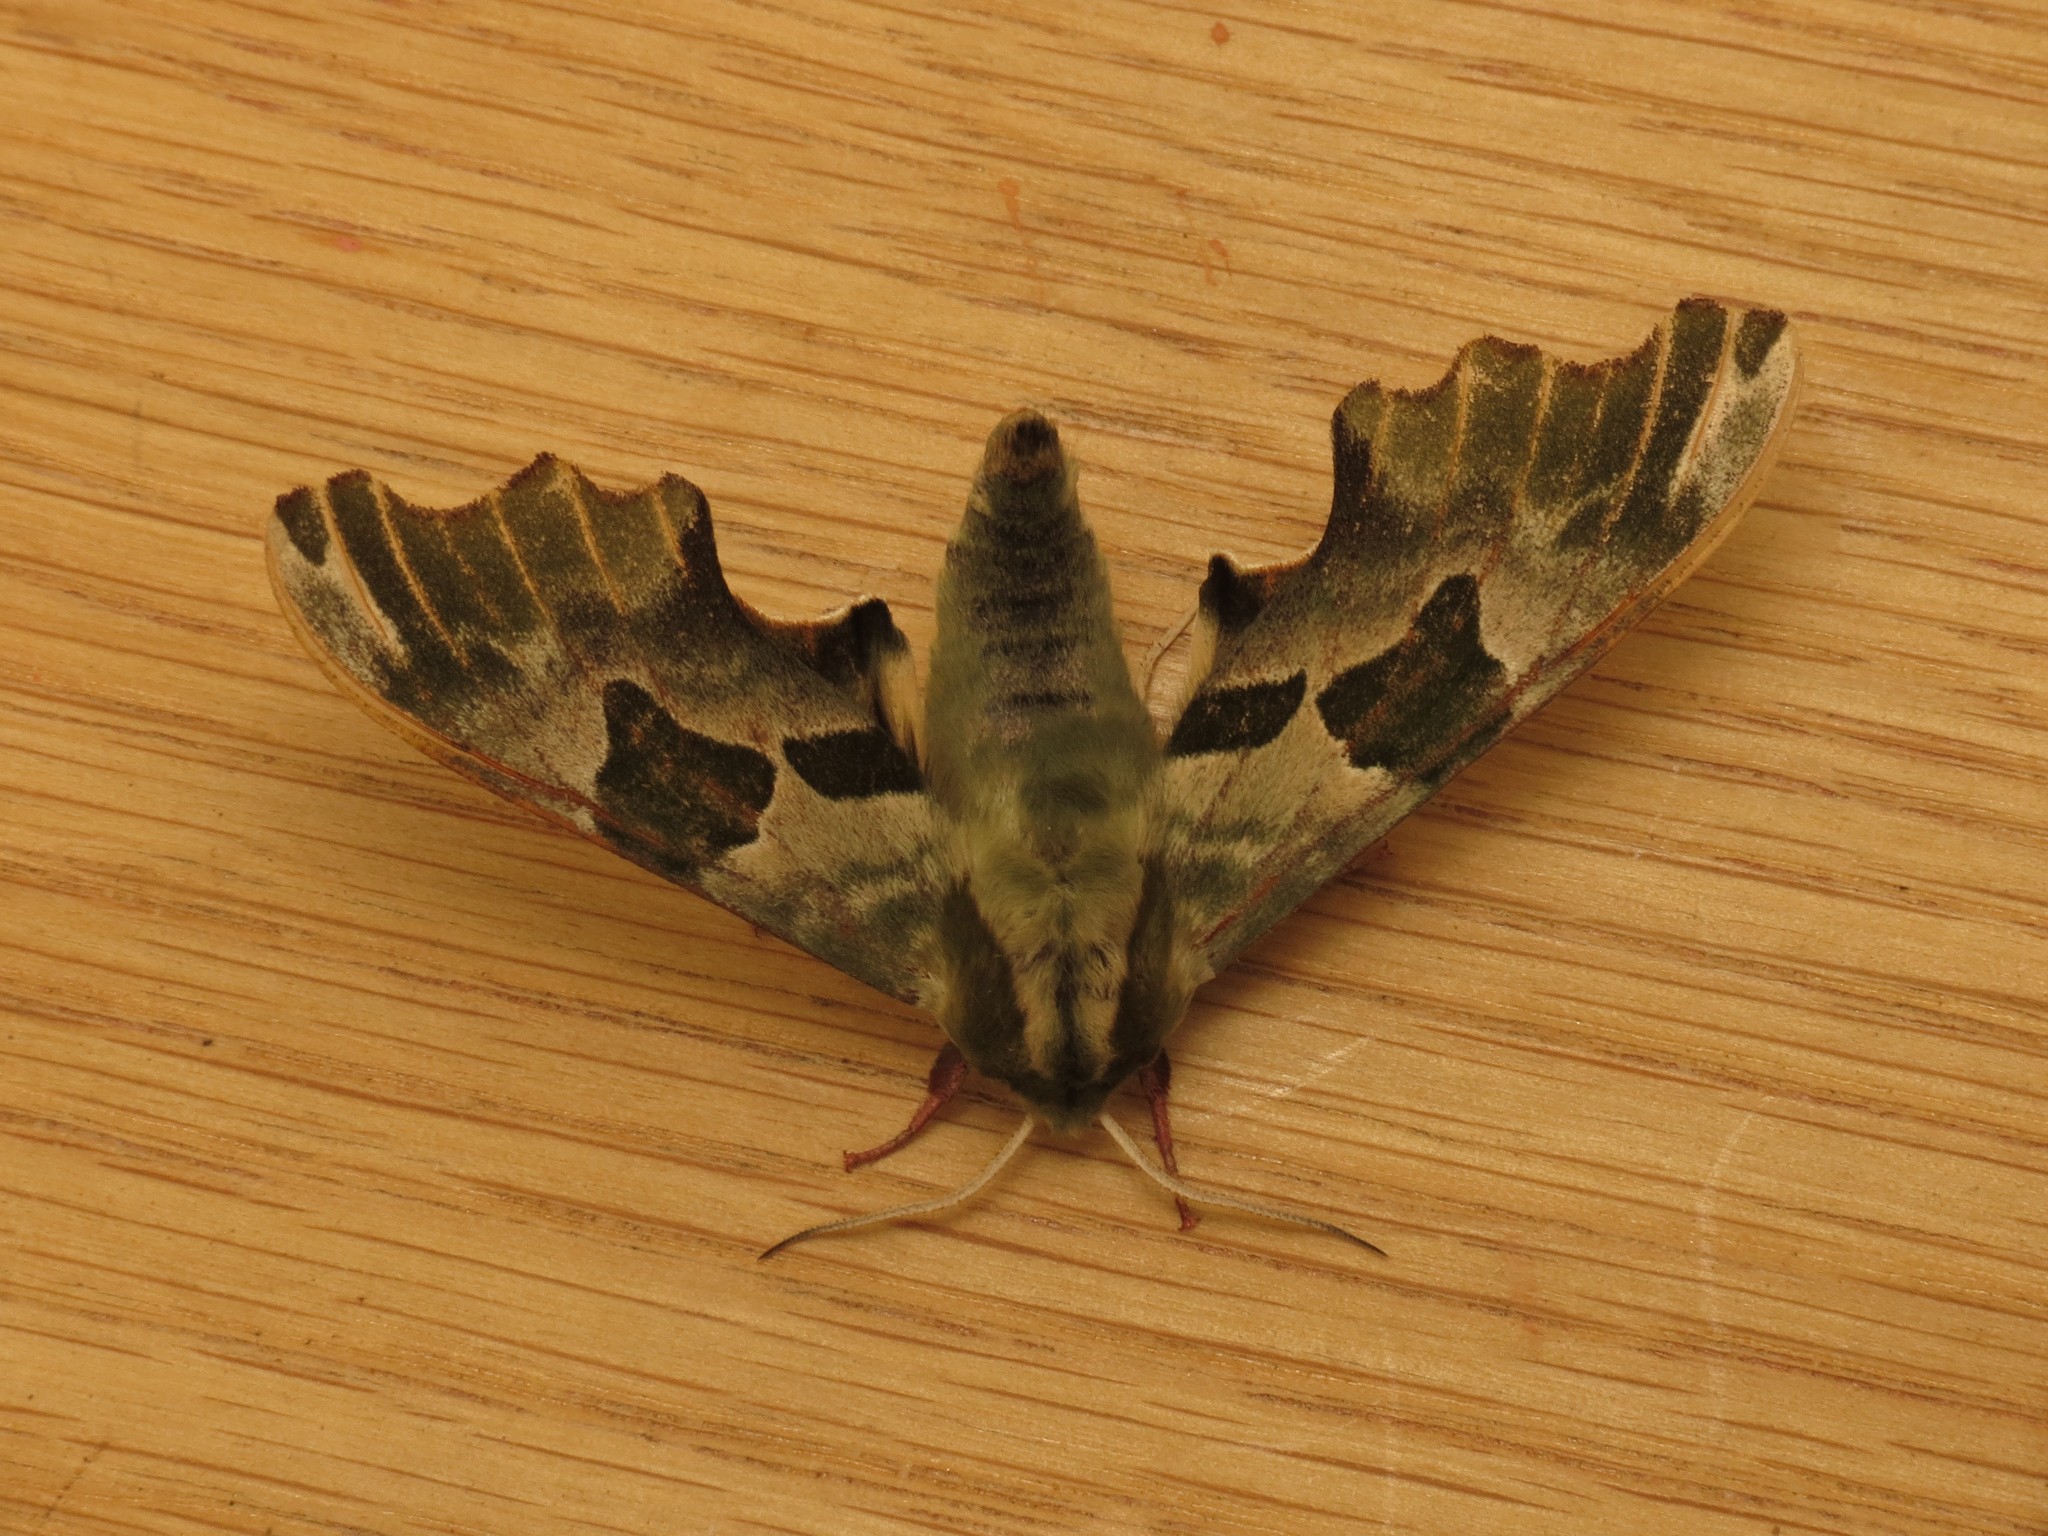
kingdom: Animalia
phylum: Arthropoda
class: Insecta
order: Lepidoptera
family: Sphingidae
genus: Mimas
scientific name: Mimas tiliae
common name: Lime hawk-moth
